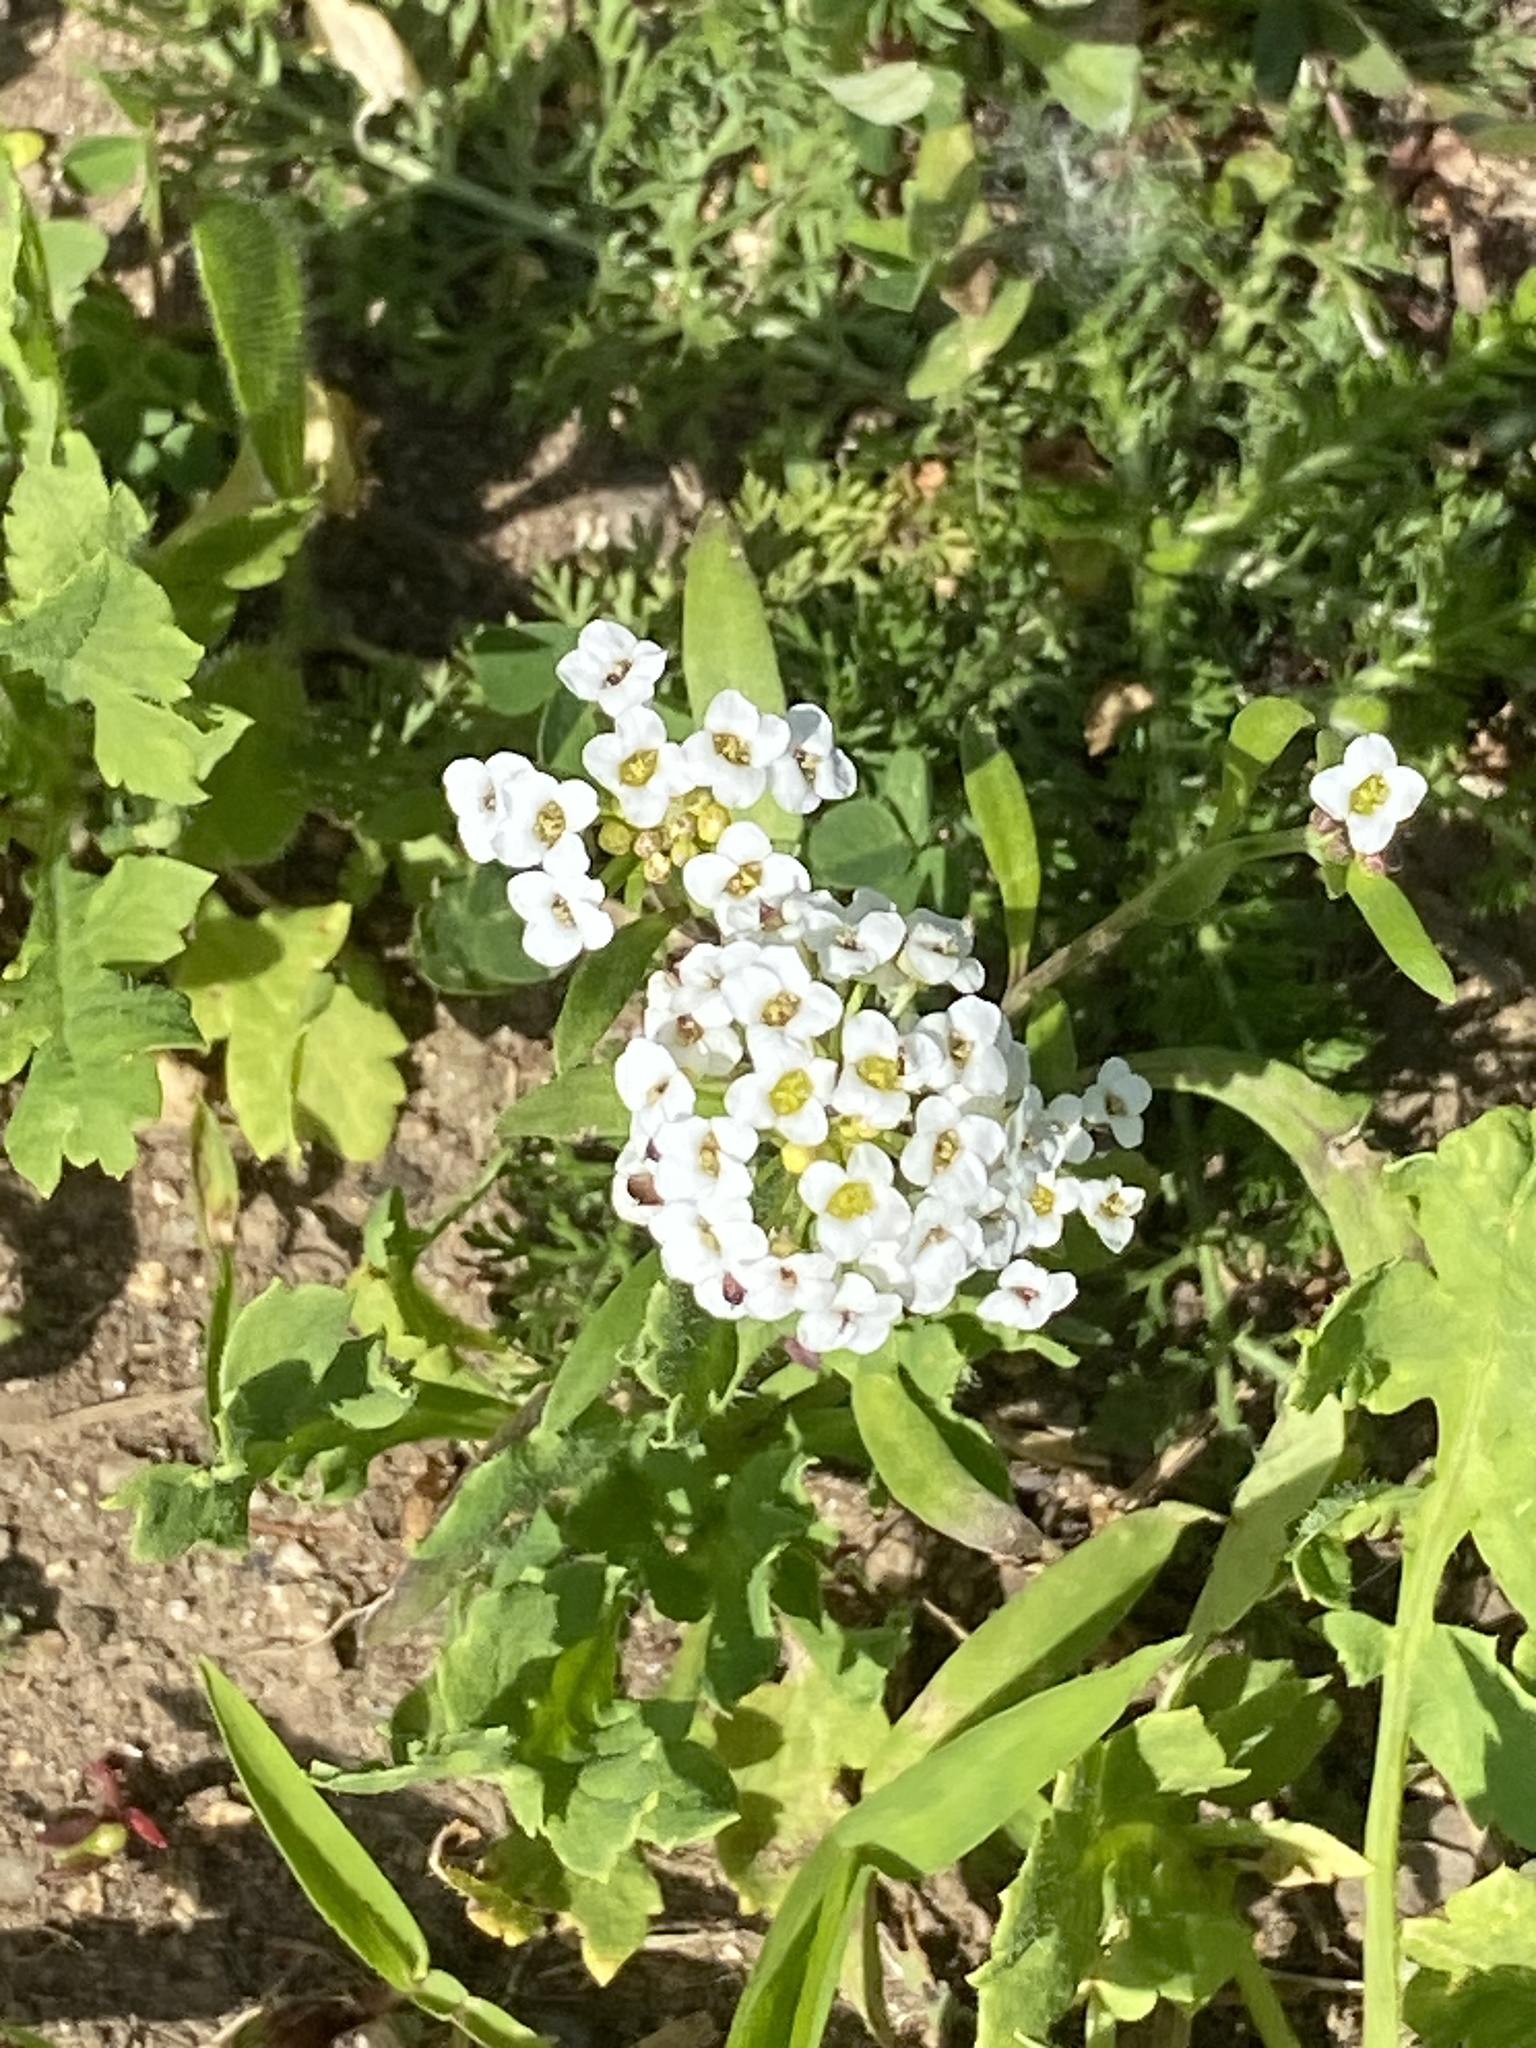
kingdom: Plantae
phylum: Tracheophyta
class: Magnoliopsida
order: Brassicales
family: Brassicaceae
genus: Lobularia
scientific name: Lobularia maritima
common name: Sweet alison
